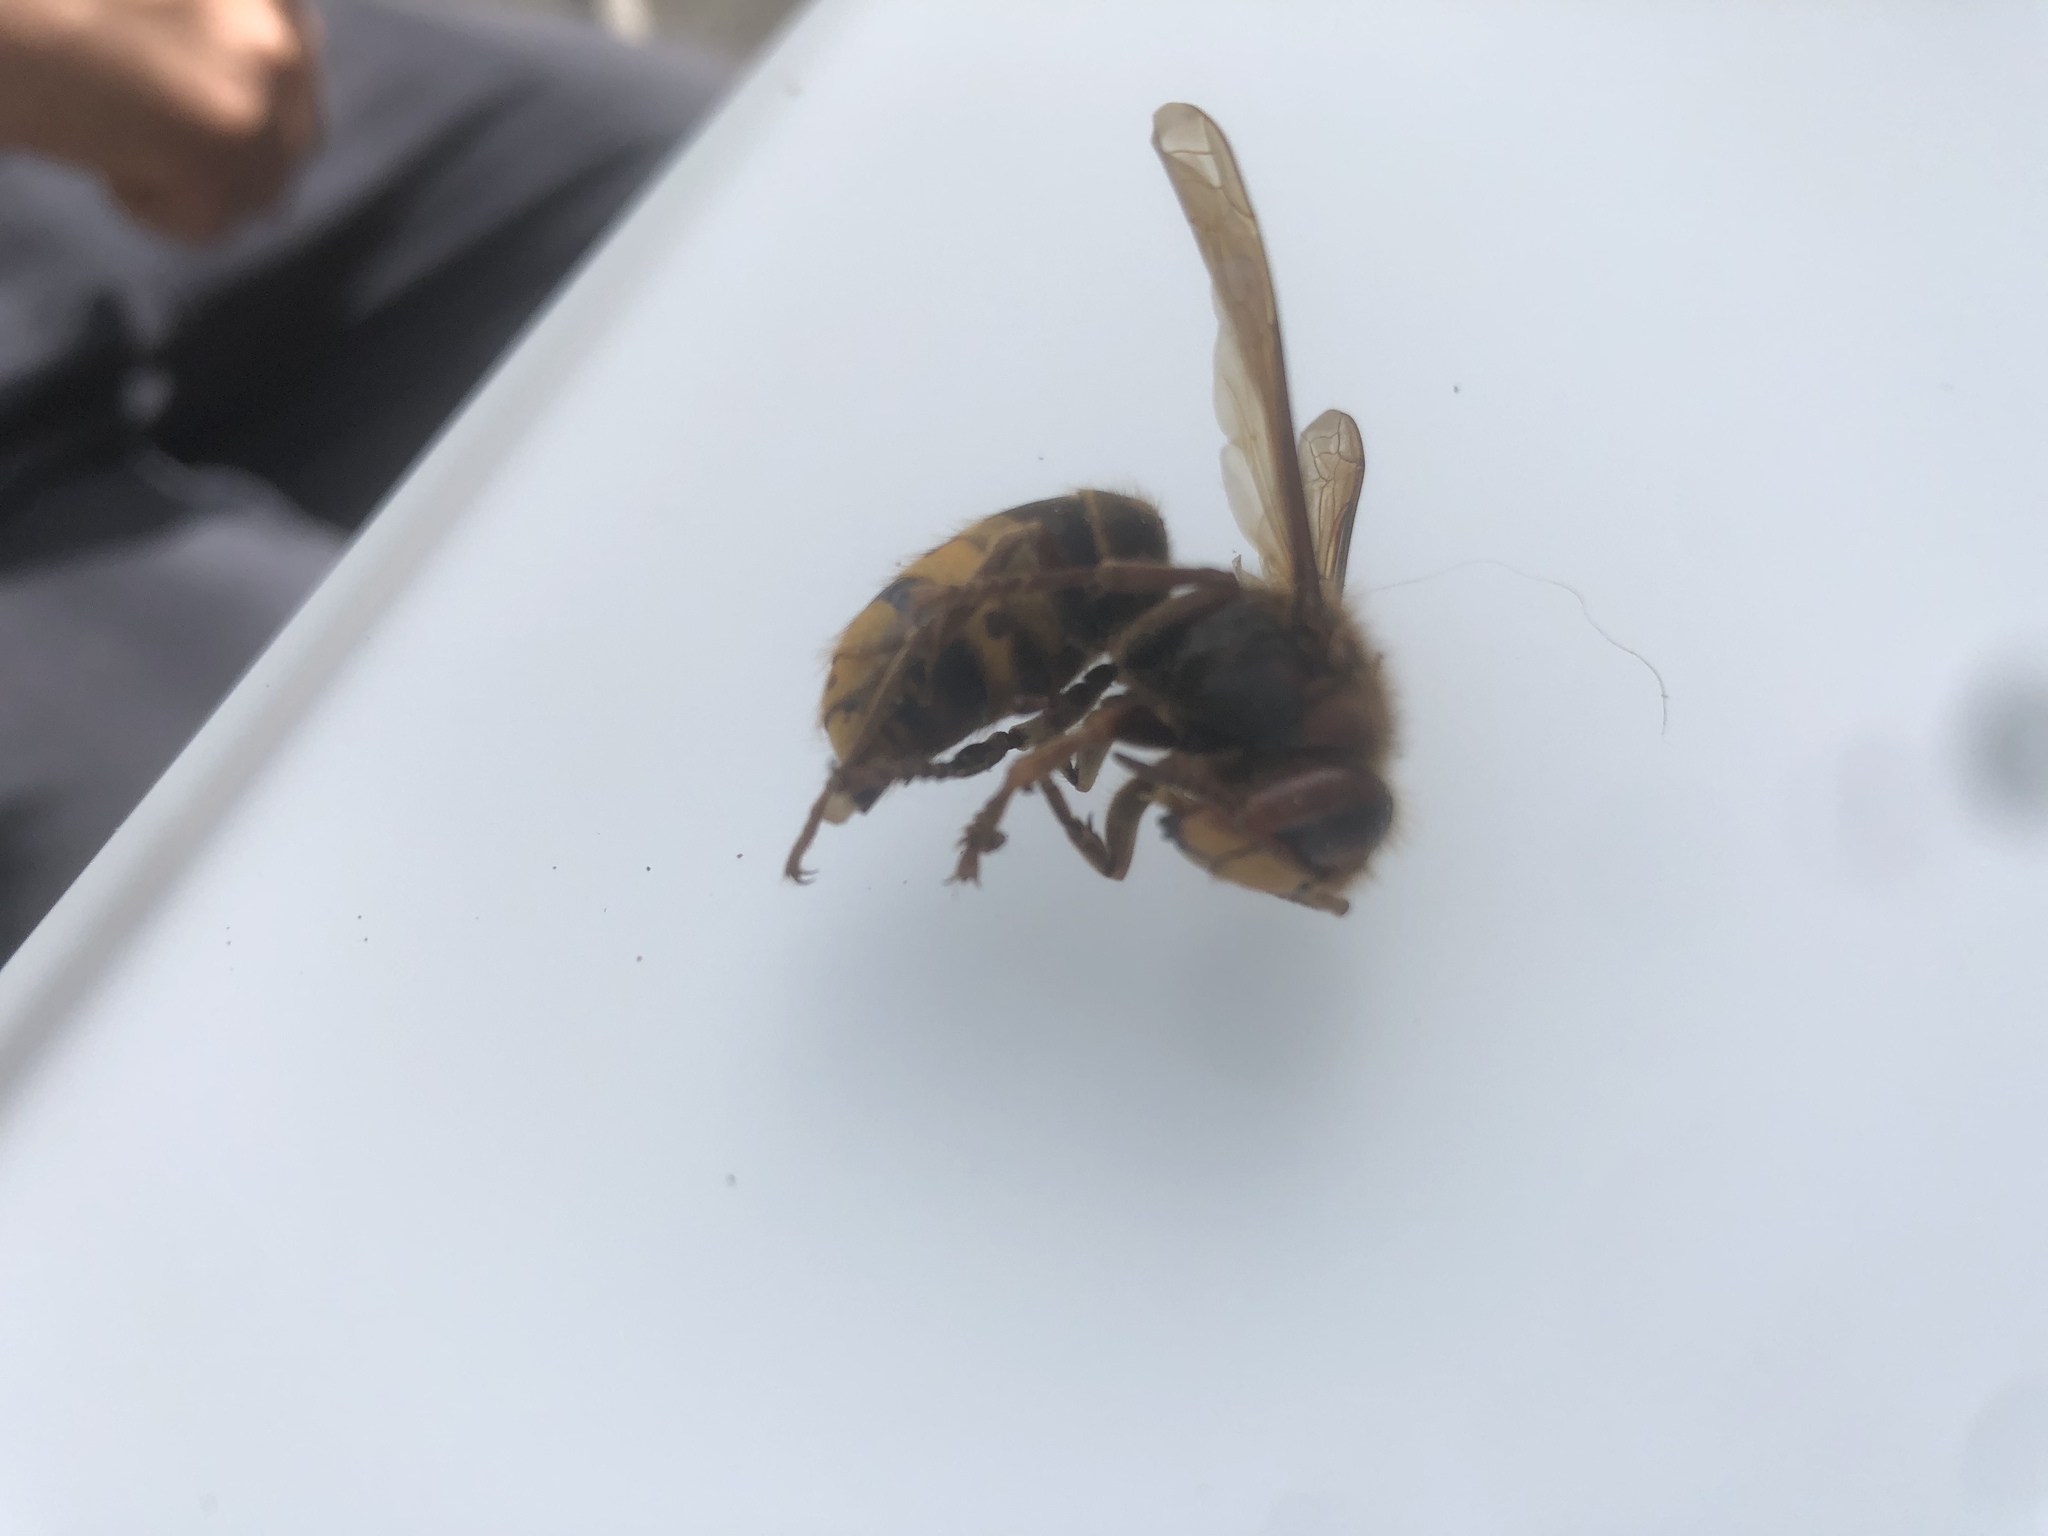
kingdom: Animalia
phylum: Arthropoda
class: Insecta
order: Hymenoptera
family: Vespidae
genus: Vespa
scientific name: Vespa crabro
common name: Hornet
